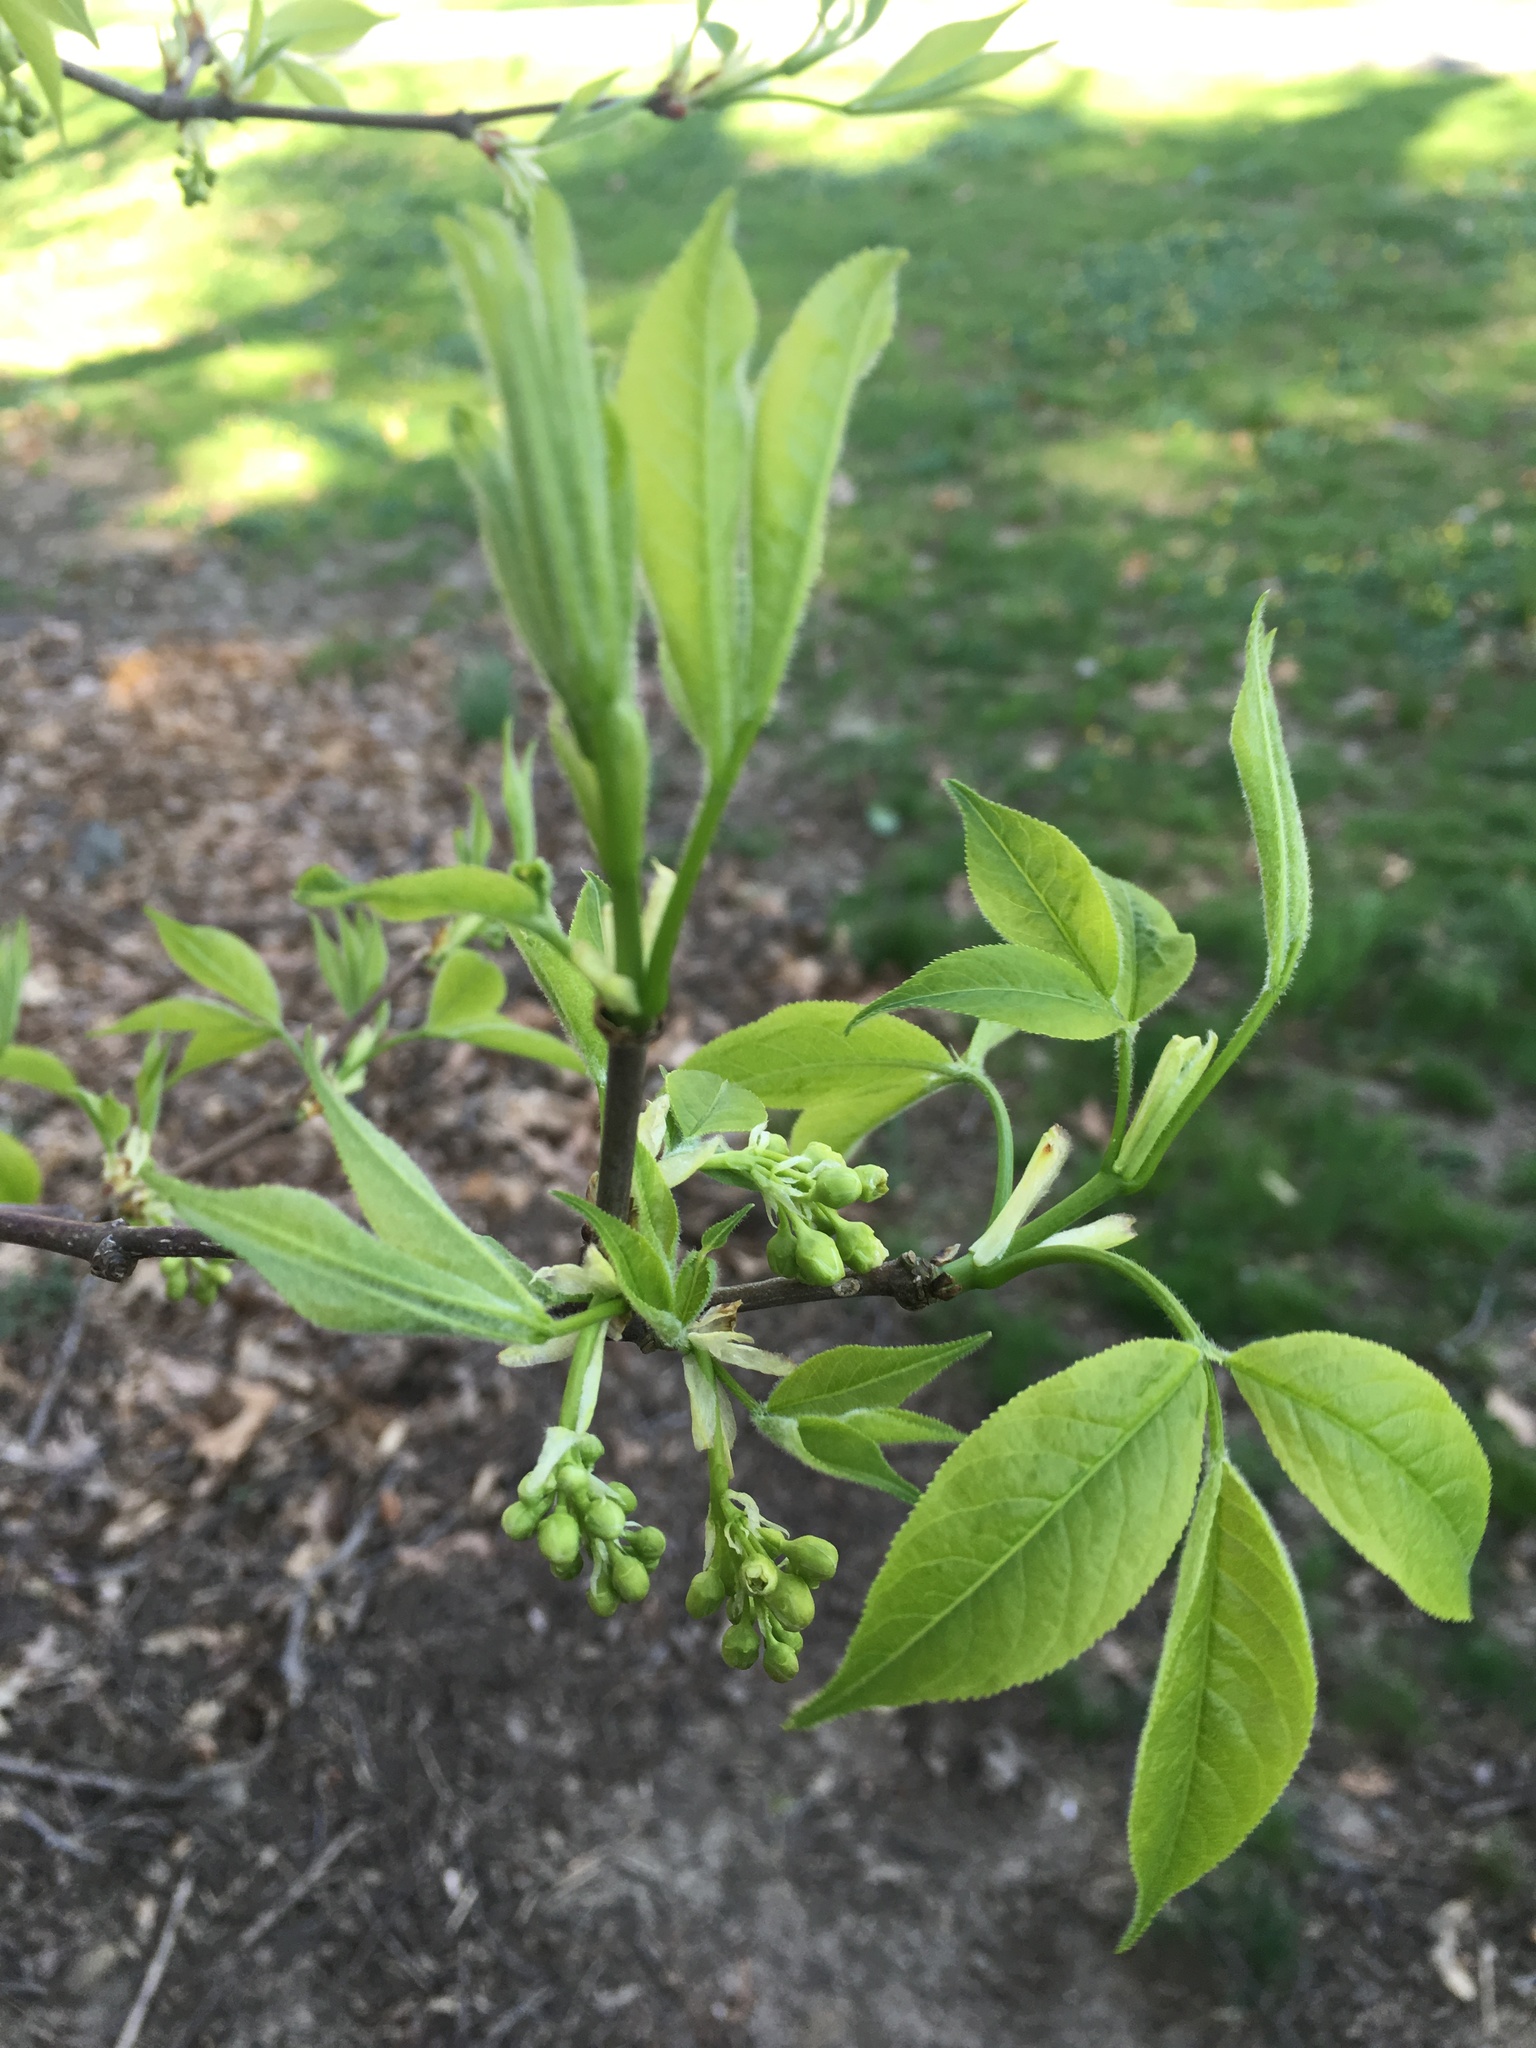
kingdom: Plantae
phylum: Tracheophyta
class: Magnoliopsida
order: Crossosomatales
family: Staphyleaceae
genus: Staphylea
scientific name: Staphylea trifolia
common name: American bladdernut
